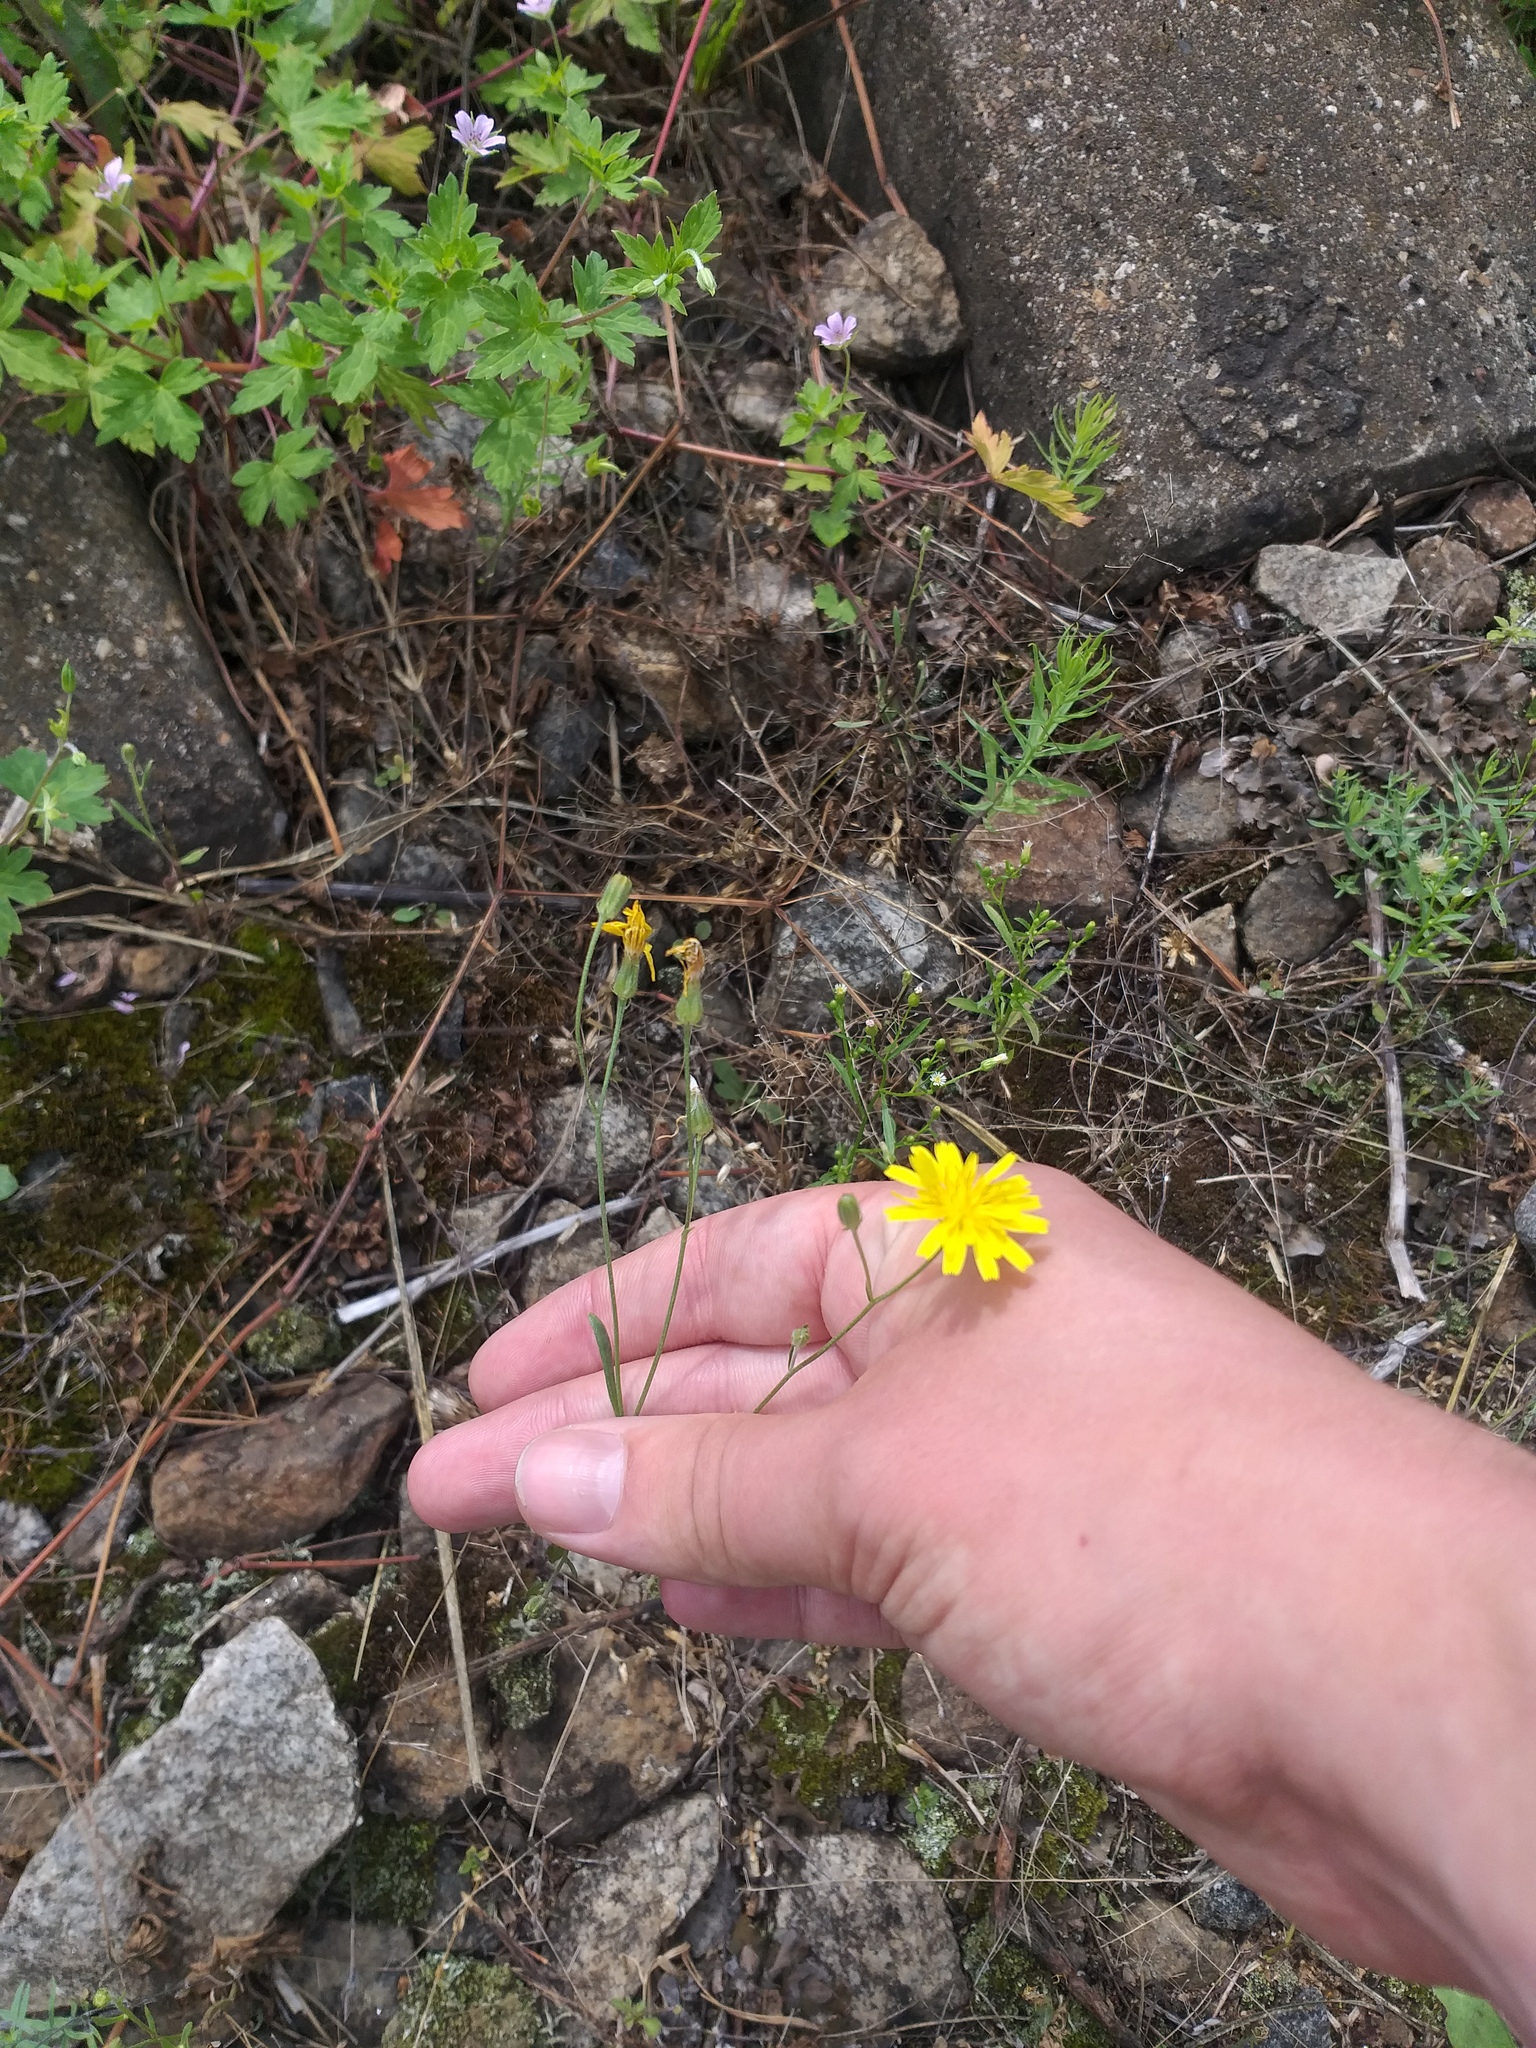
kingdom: Plantae
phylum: Tracheophyta
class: Magnoliopsida
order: Asterales
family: Asteraceae
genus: Crepis
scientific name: Crepis tectorum
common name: Narrow-leaved hawk's-beard
